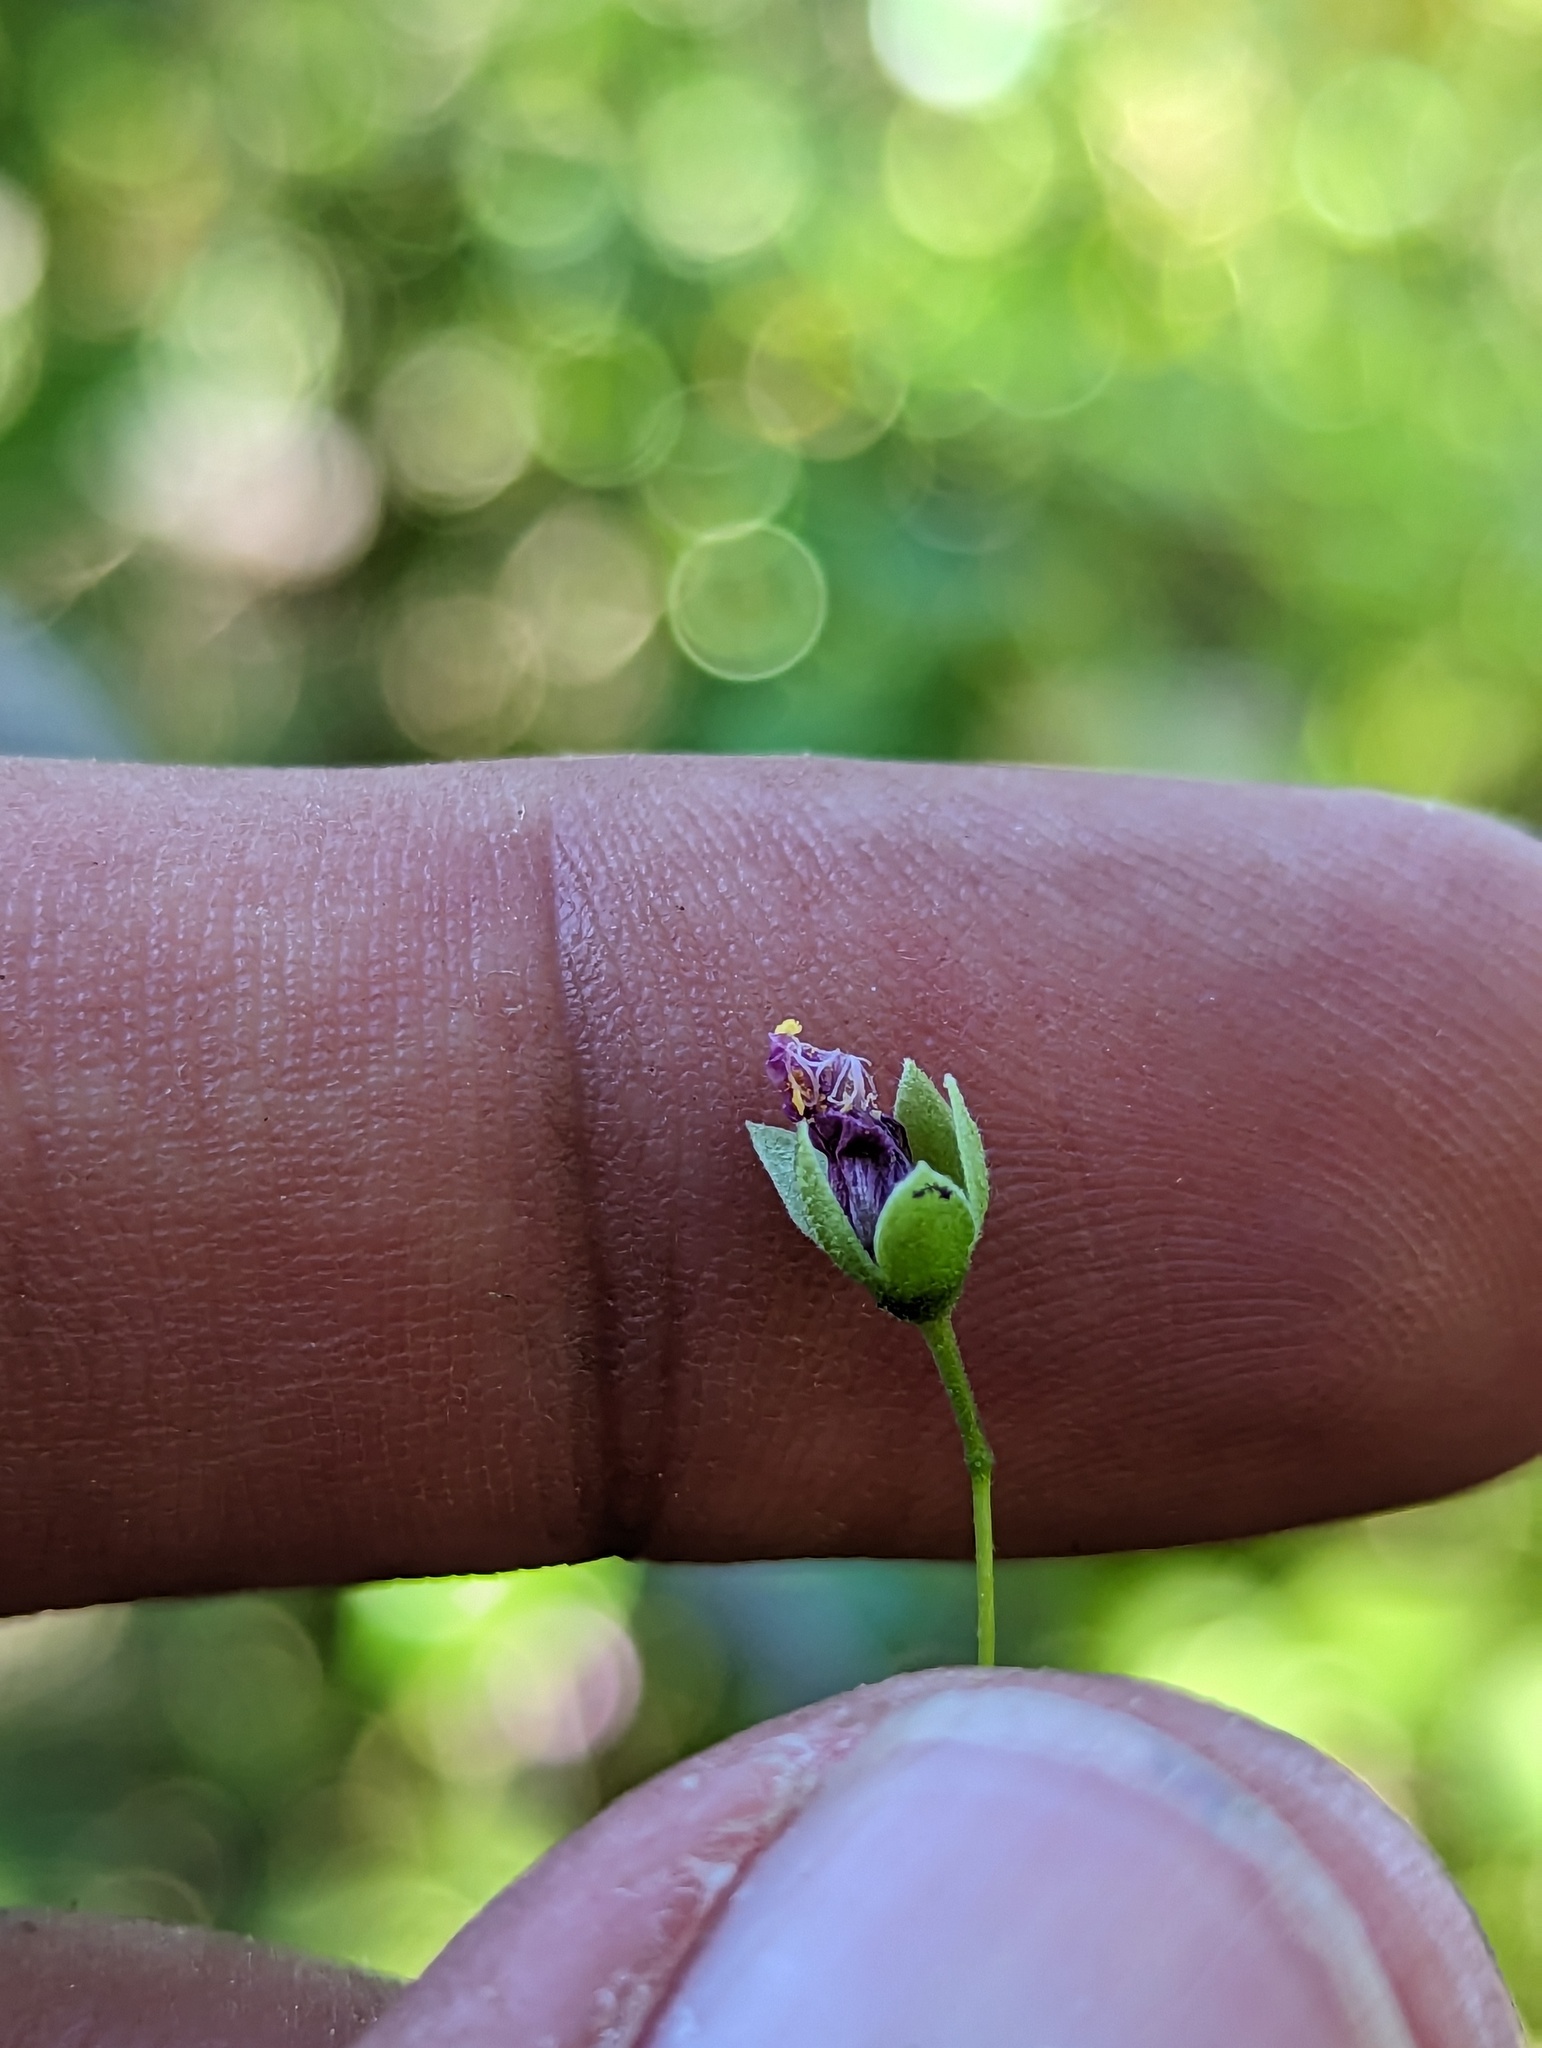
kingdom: Plantae
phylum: Tracheophyta
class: Magnoliopsida
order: Malvales
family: Malvaceae
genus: Sidastrum
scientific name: Sidastrum burrerense
